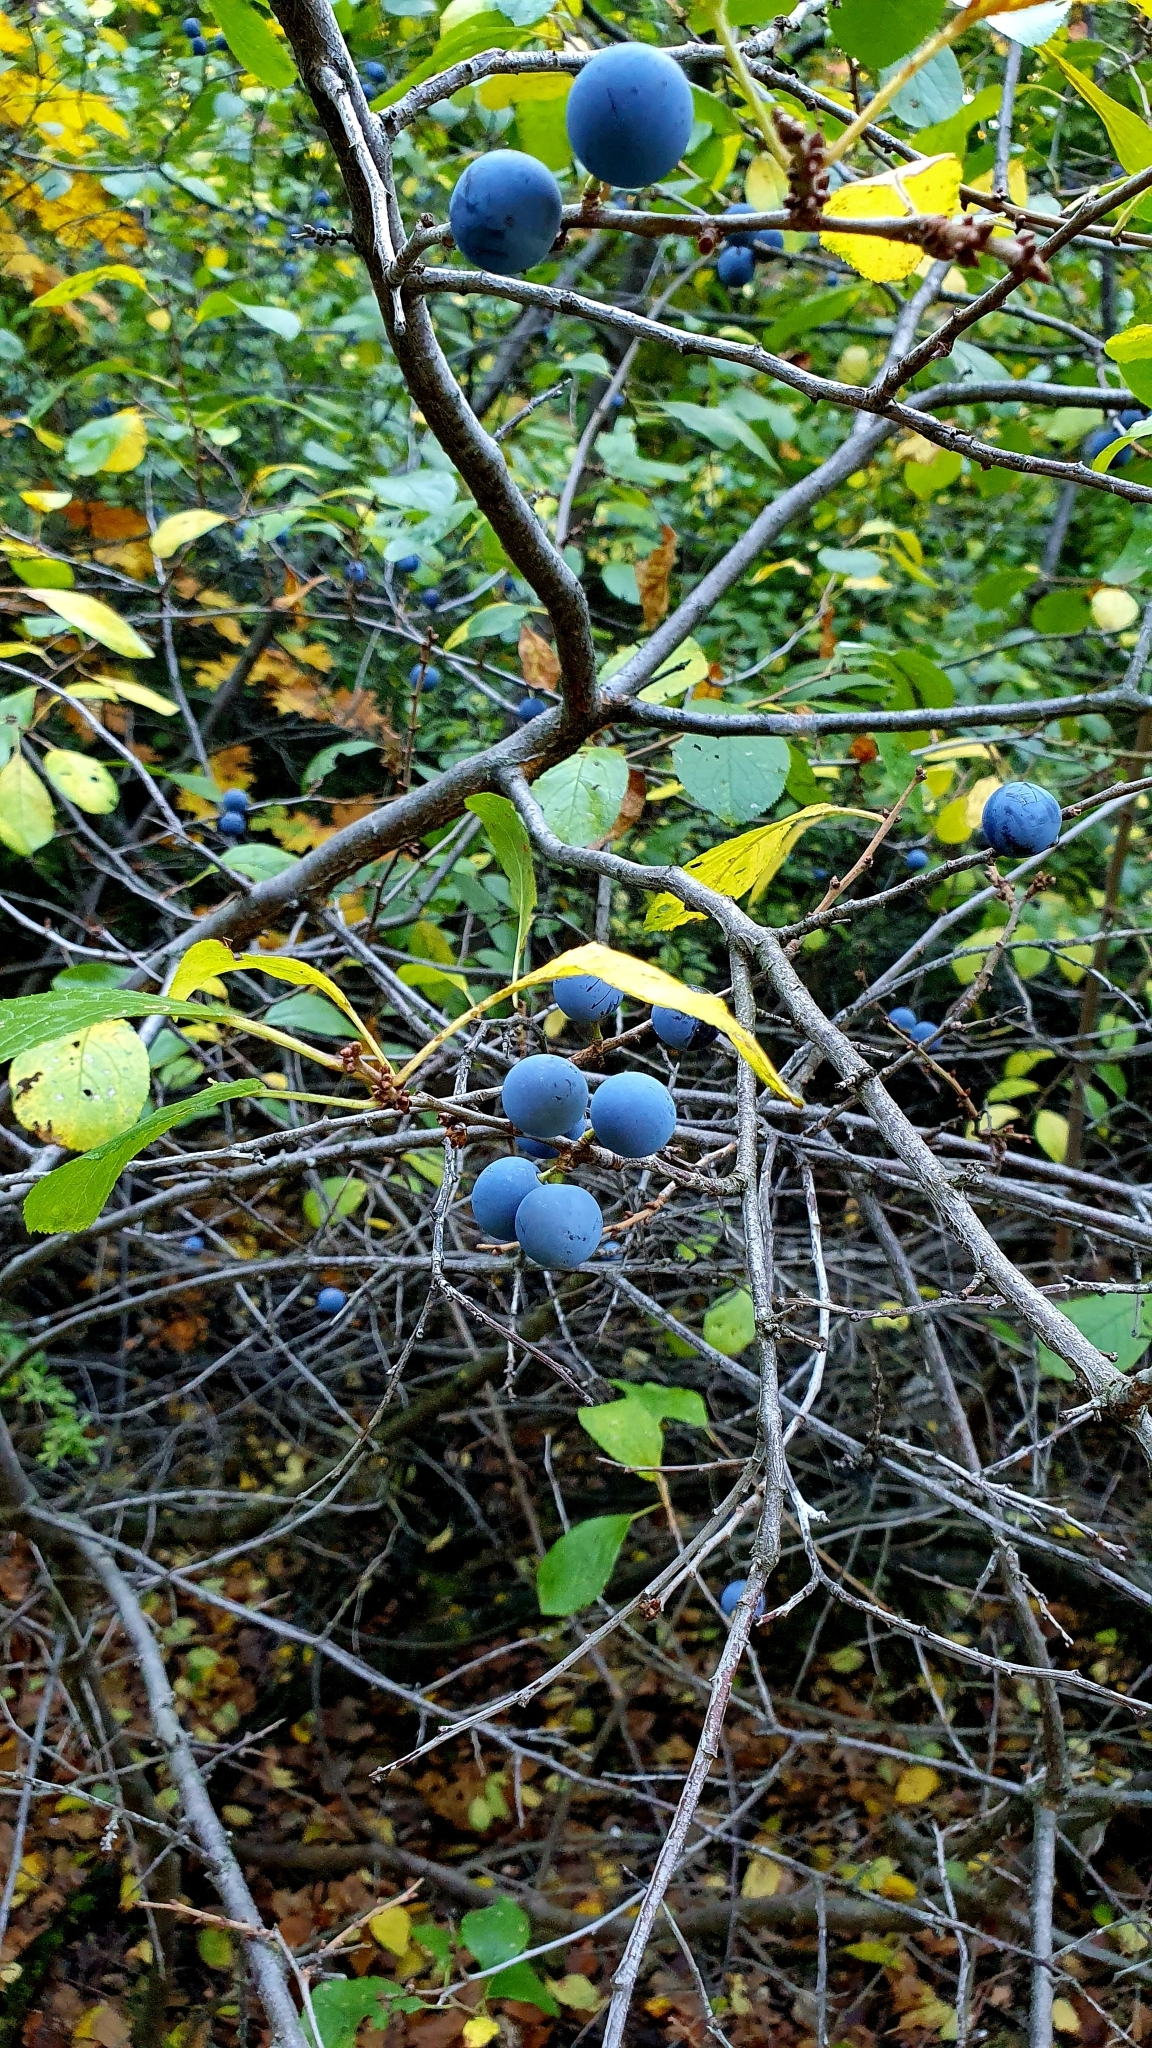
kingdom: Plantae
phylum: Tracheophyta
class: Magnoliopsida
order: Rosales
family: Rosaceae
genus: Prunus
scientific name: Prunus spinosa
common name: Blackthorn
